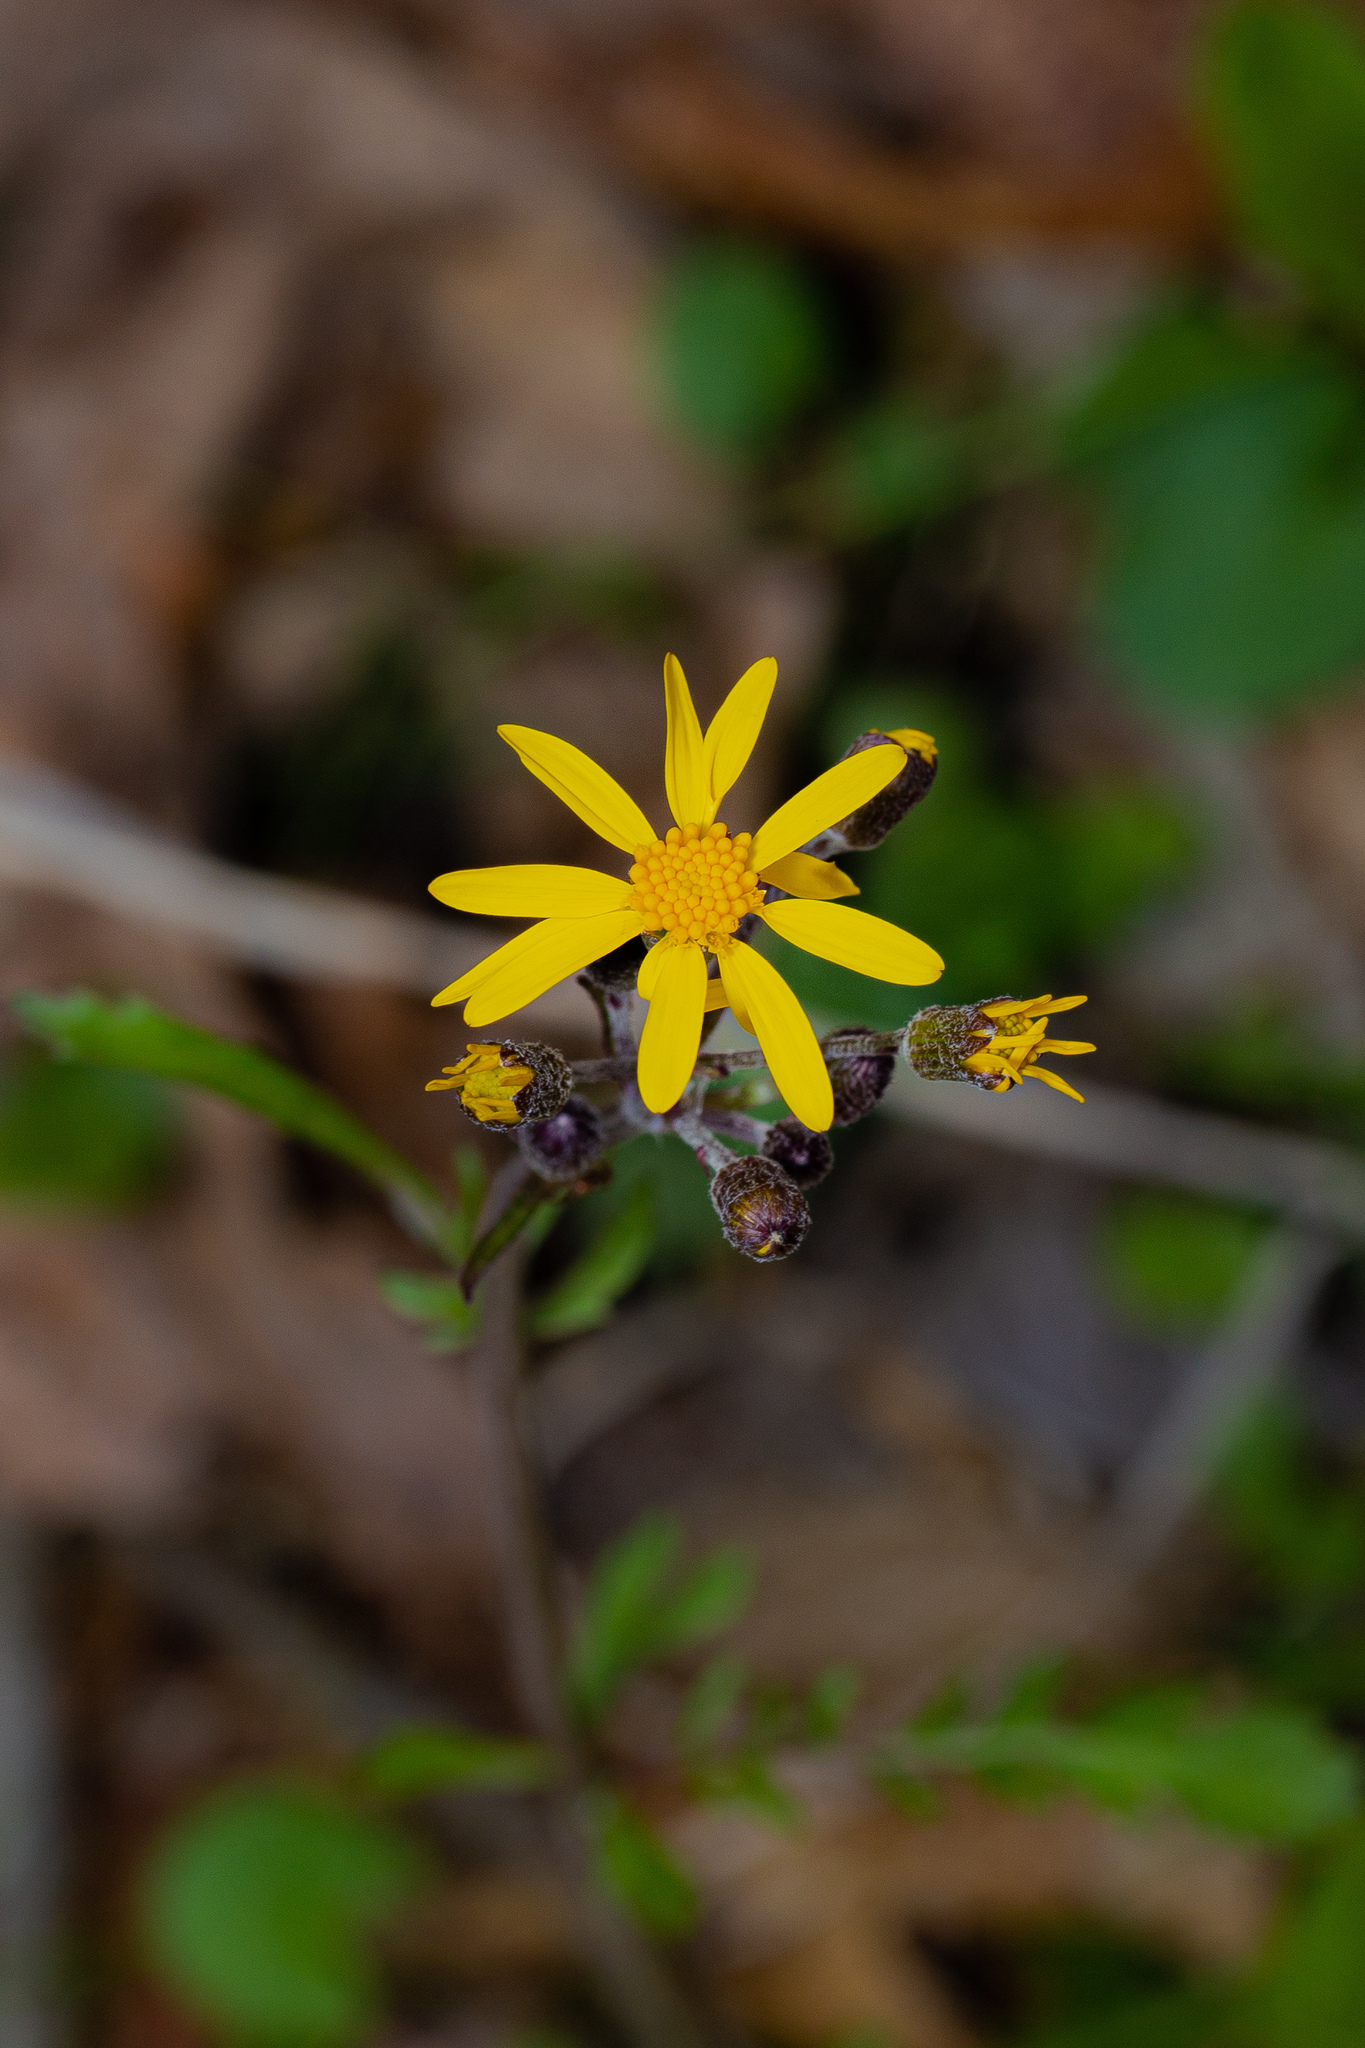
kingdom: Plantae
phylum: Tracheophyta
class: Magnoliopsida
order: Asterales
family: Asteraceae
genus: Packera
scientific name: Packera aurea
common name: Golden groundsel
